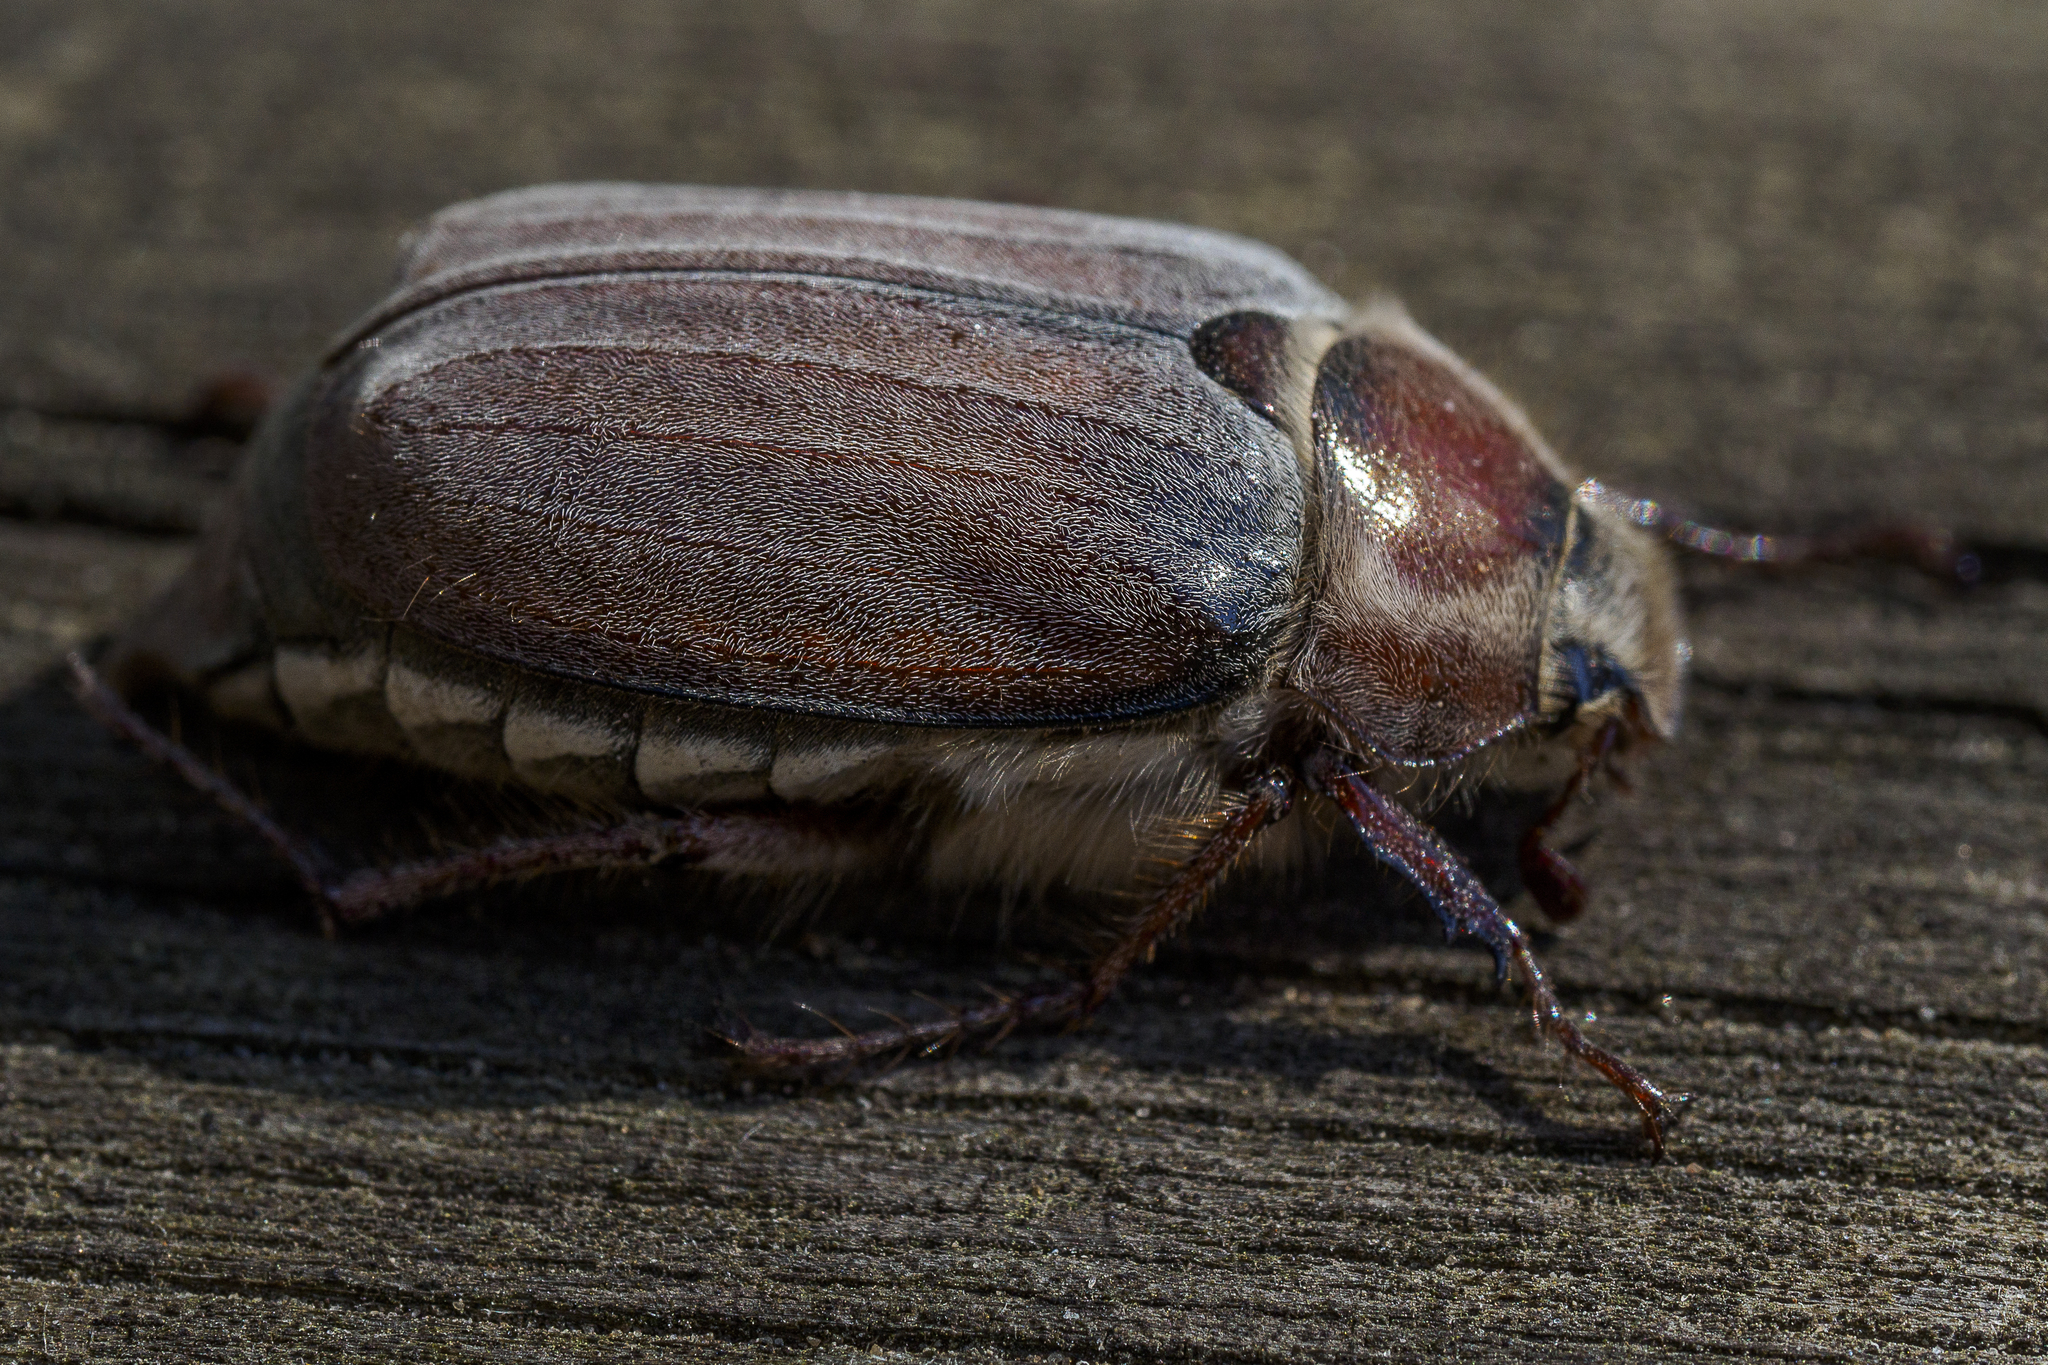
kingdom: Animalia
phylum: Arthropoda
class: Insecta
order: Coleoptera
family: Scarabaeidae
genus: Melolontha
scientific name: Melolontha hippocastani
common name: Chestnut cockchafer
